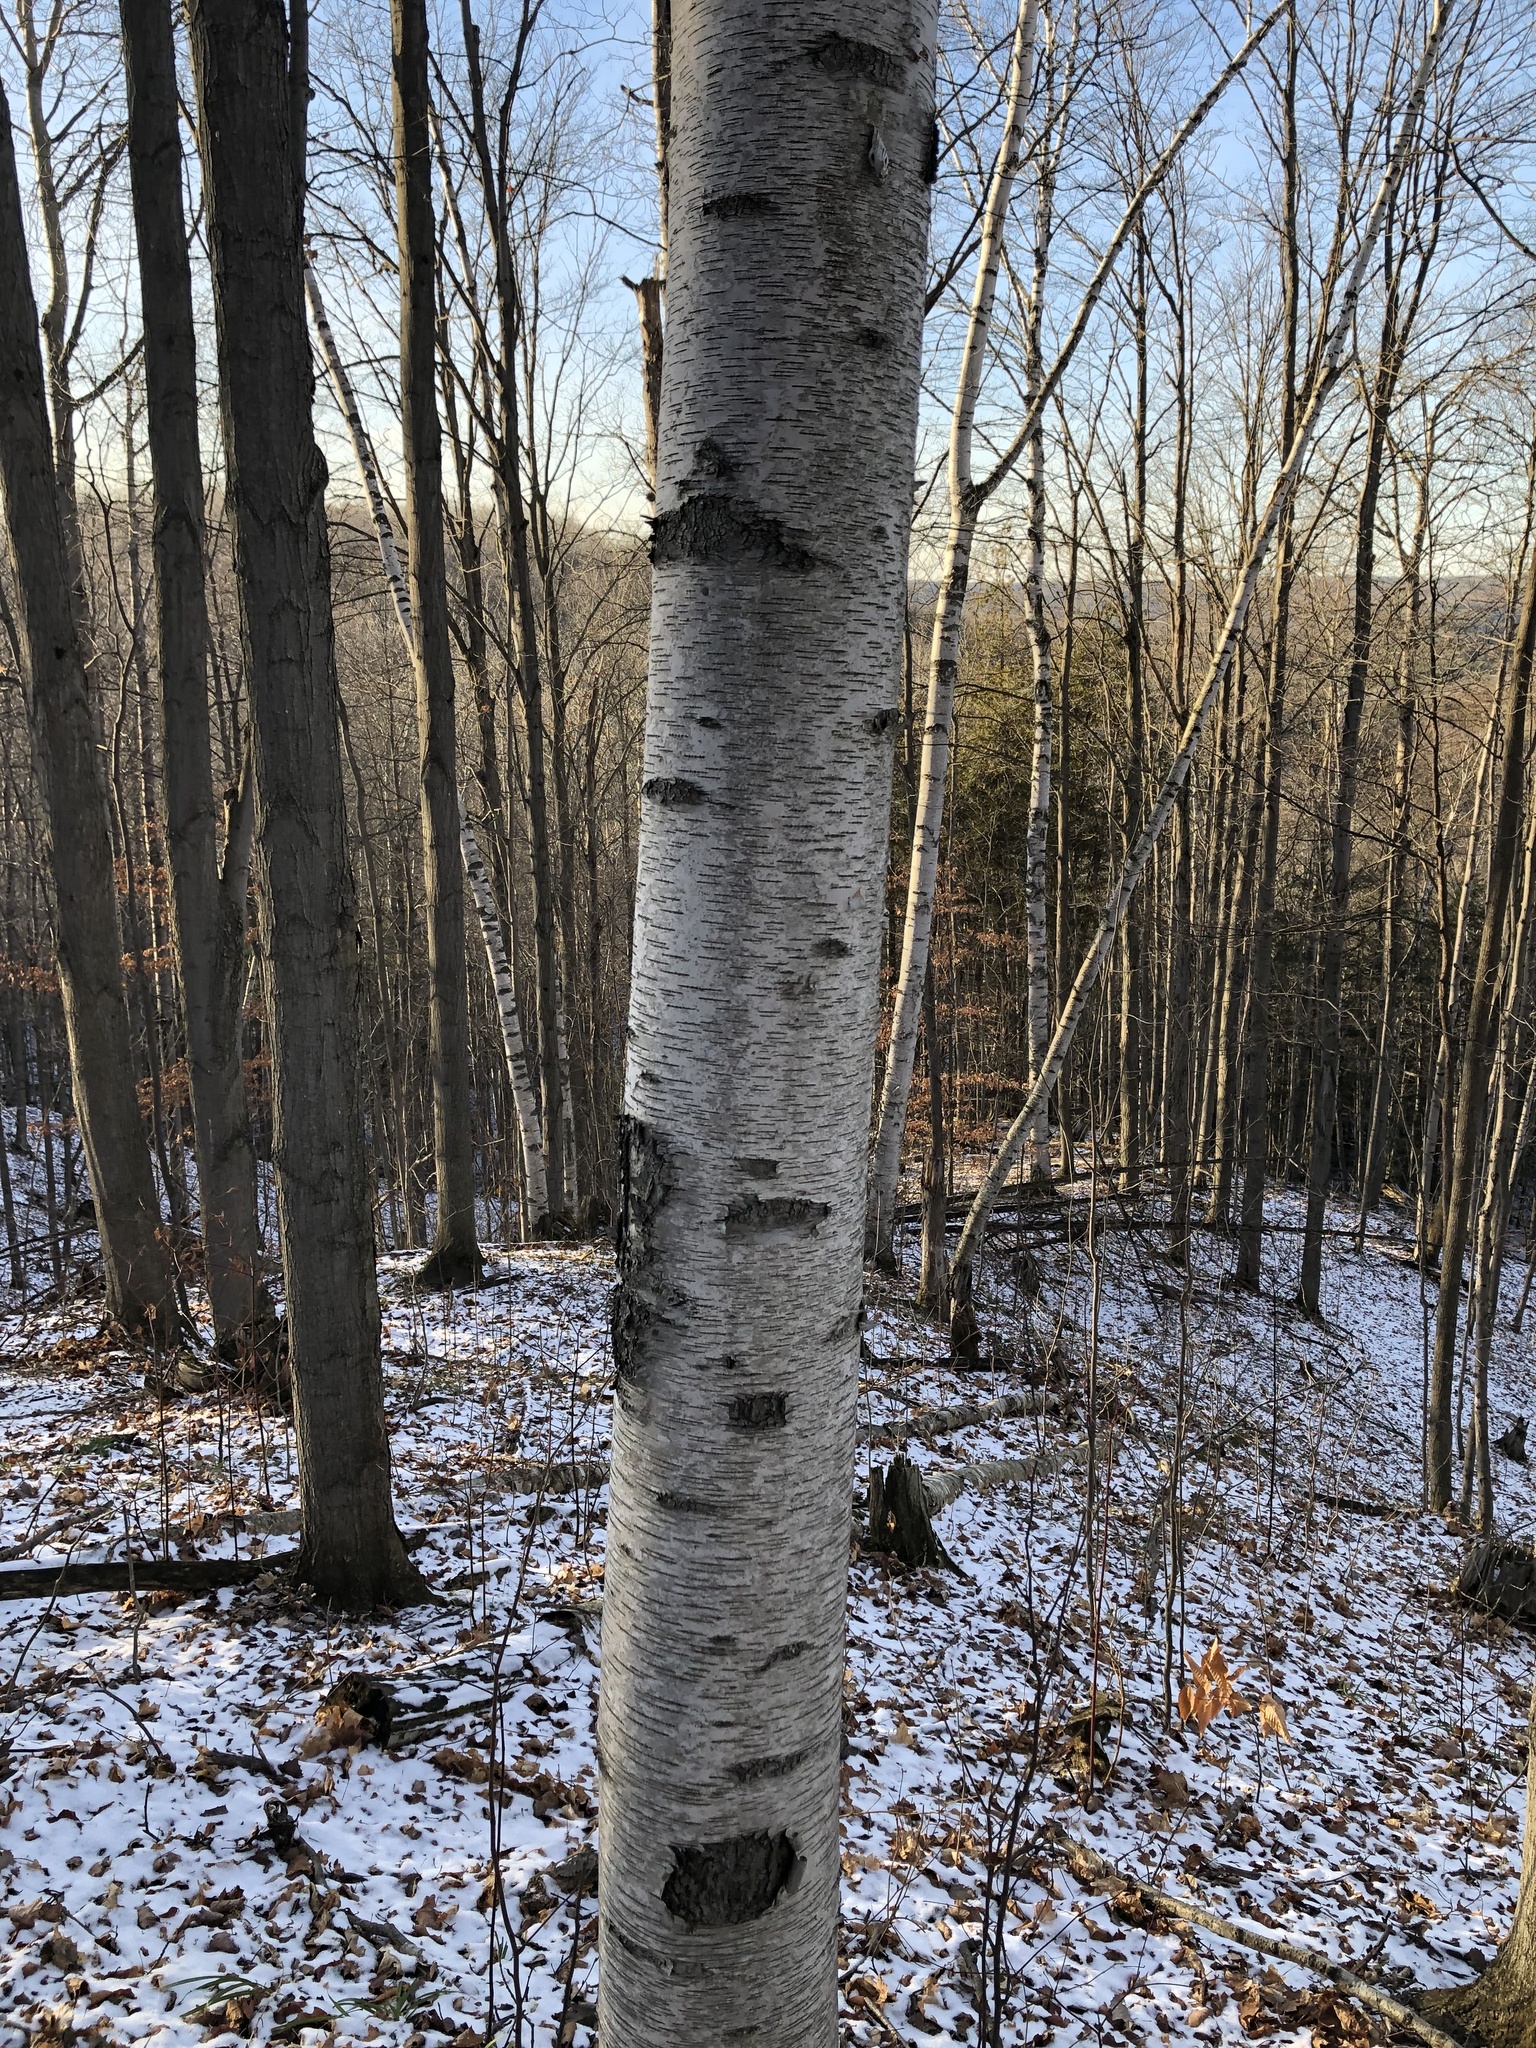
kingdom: Plantae
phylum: Tracheophyta
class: Magnoliopsida
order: Fagales
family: Betulaceae
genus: Betula
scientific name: Betula papyrifera
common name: Paper birch
